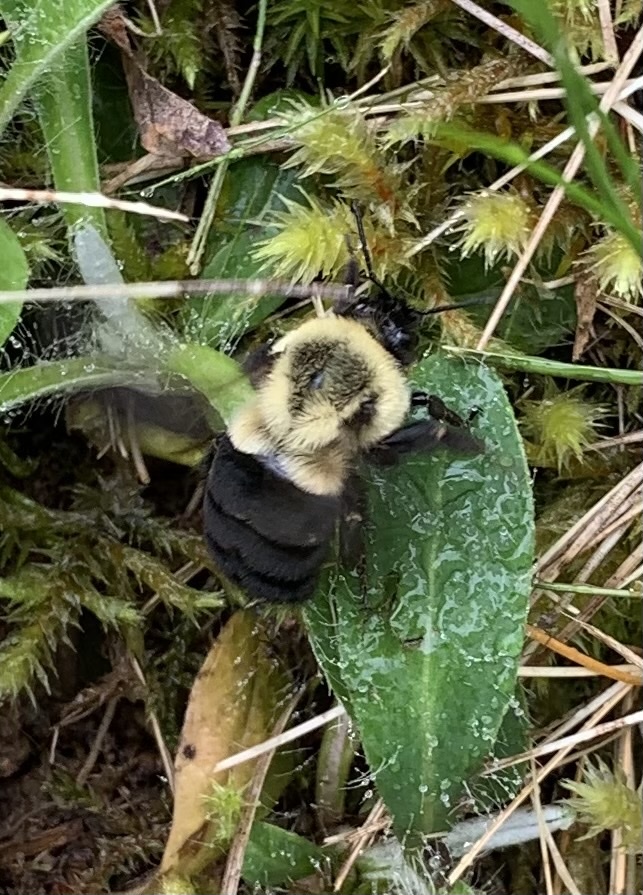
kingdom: Animalia
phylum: Arthropoda
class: Insecta
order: Hymenoptera
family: Apidae
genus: Bombus
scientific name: Bombus impatiens
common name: Common eastern bumble bee
